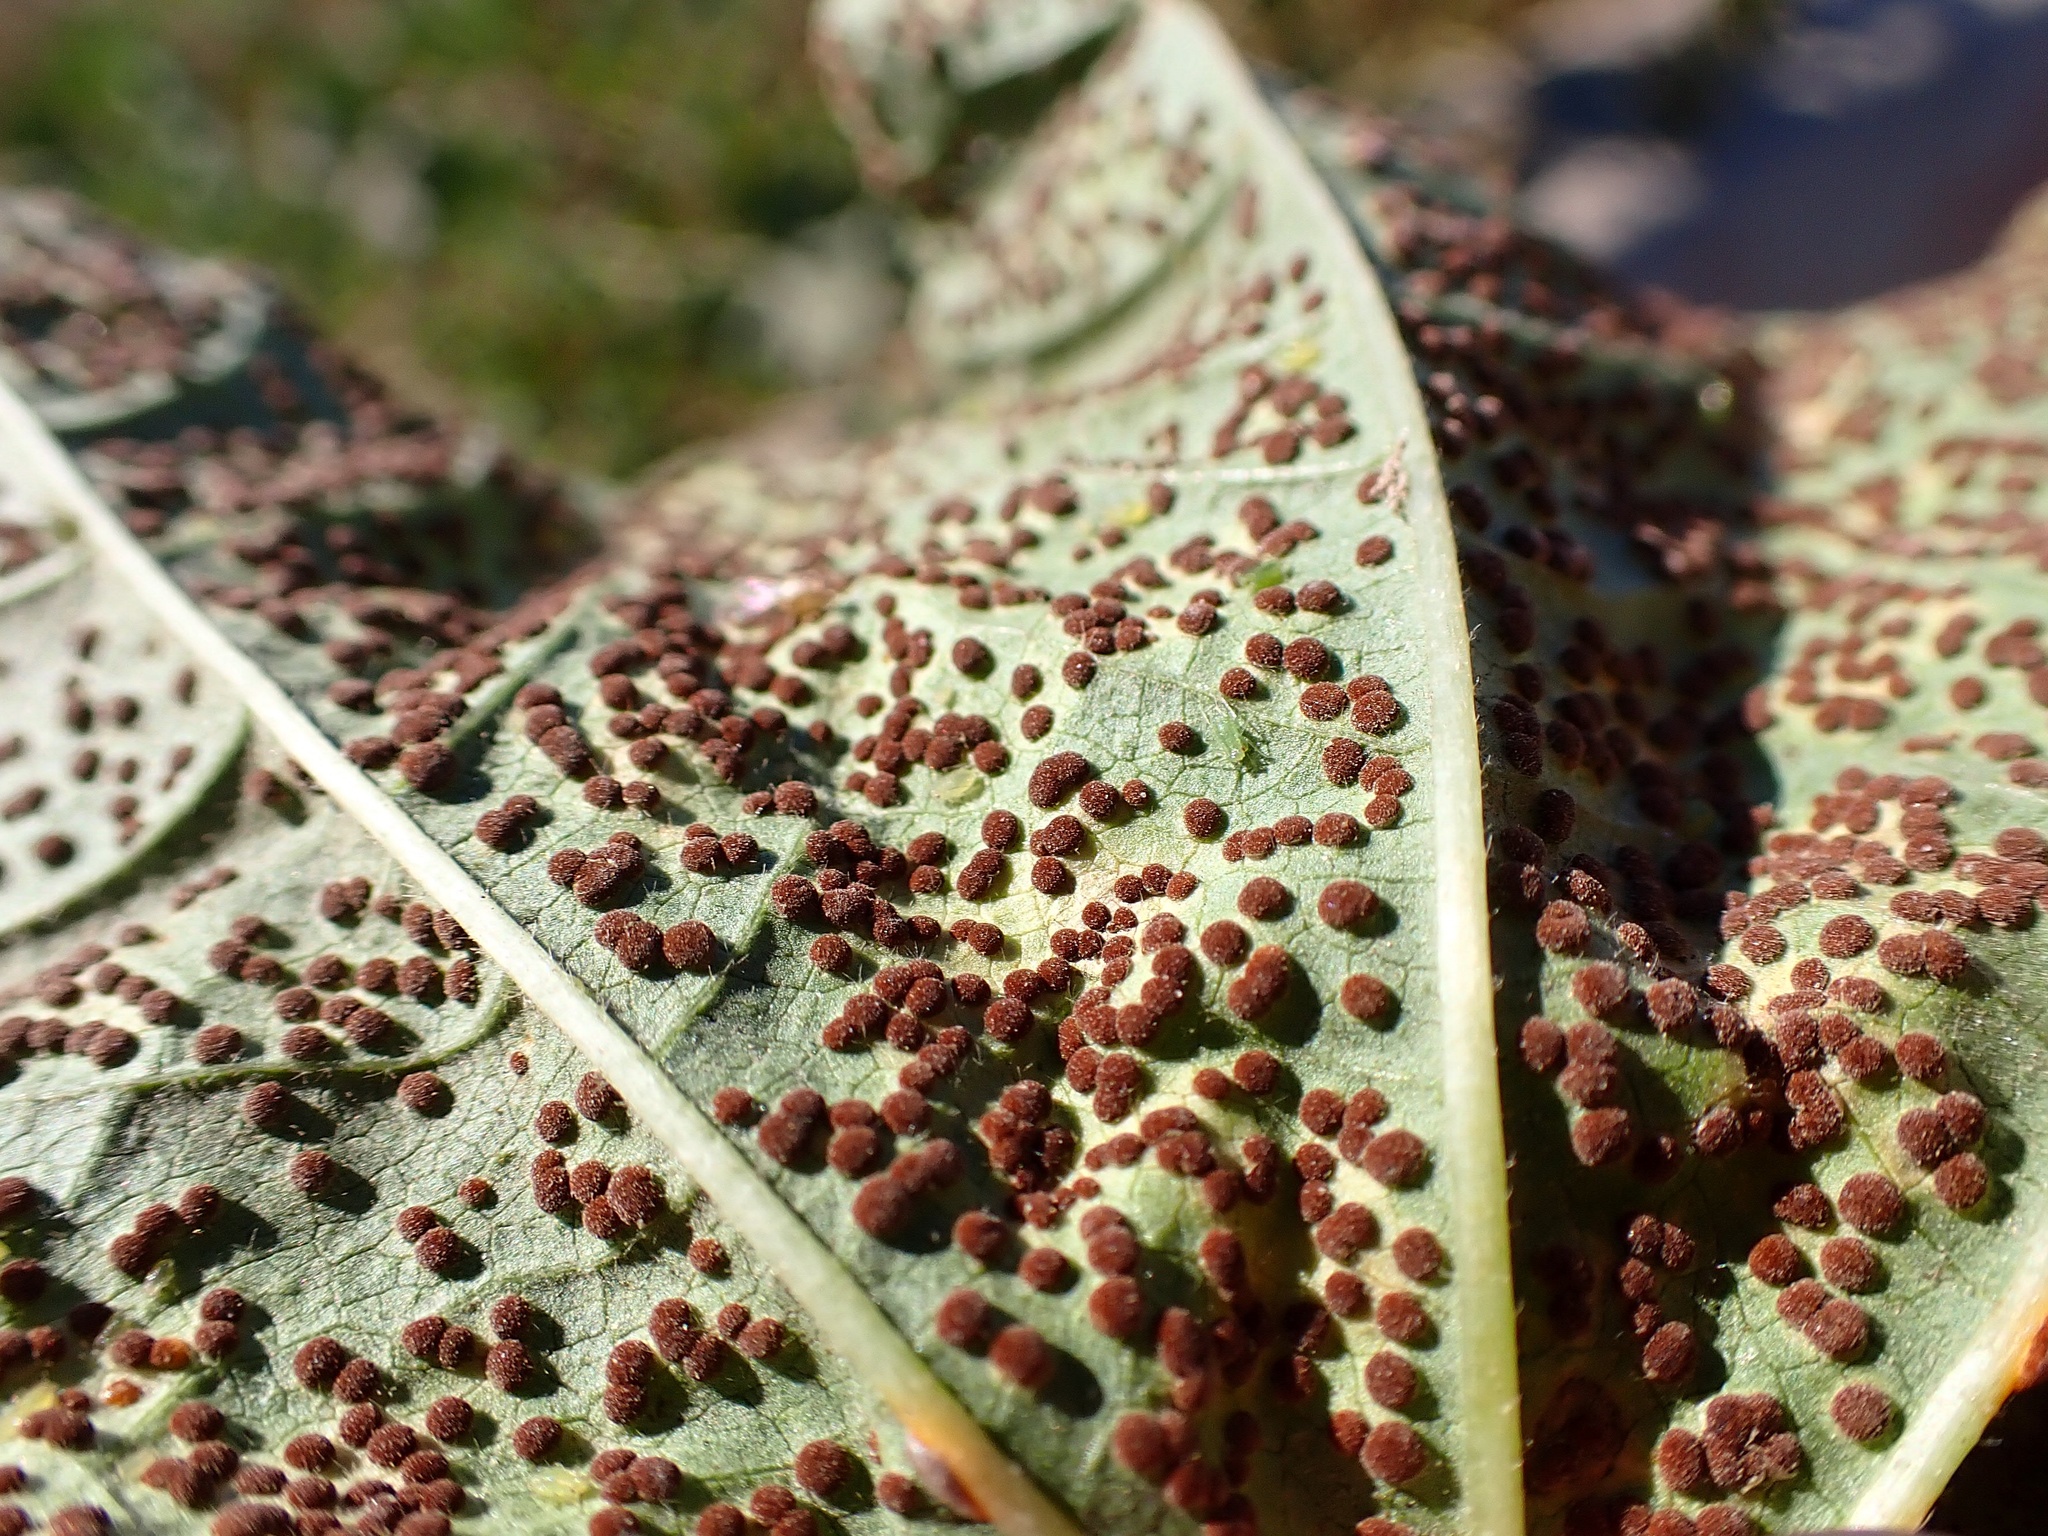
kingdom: Fungi
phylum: Basidiomycota
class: Pucciniomycetes
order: Pucciniales
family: Pucciniaceae
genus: Puccinia
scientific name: Puccinia malvacearum
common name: Hollyhock rust
